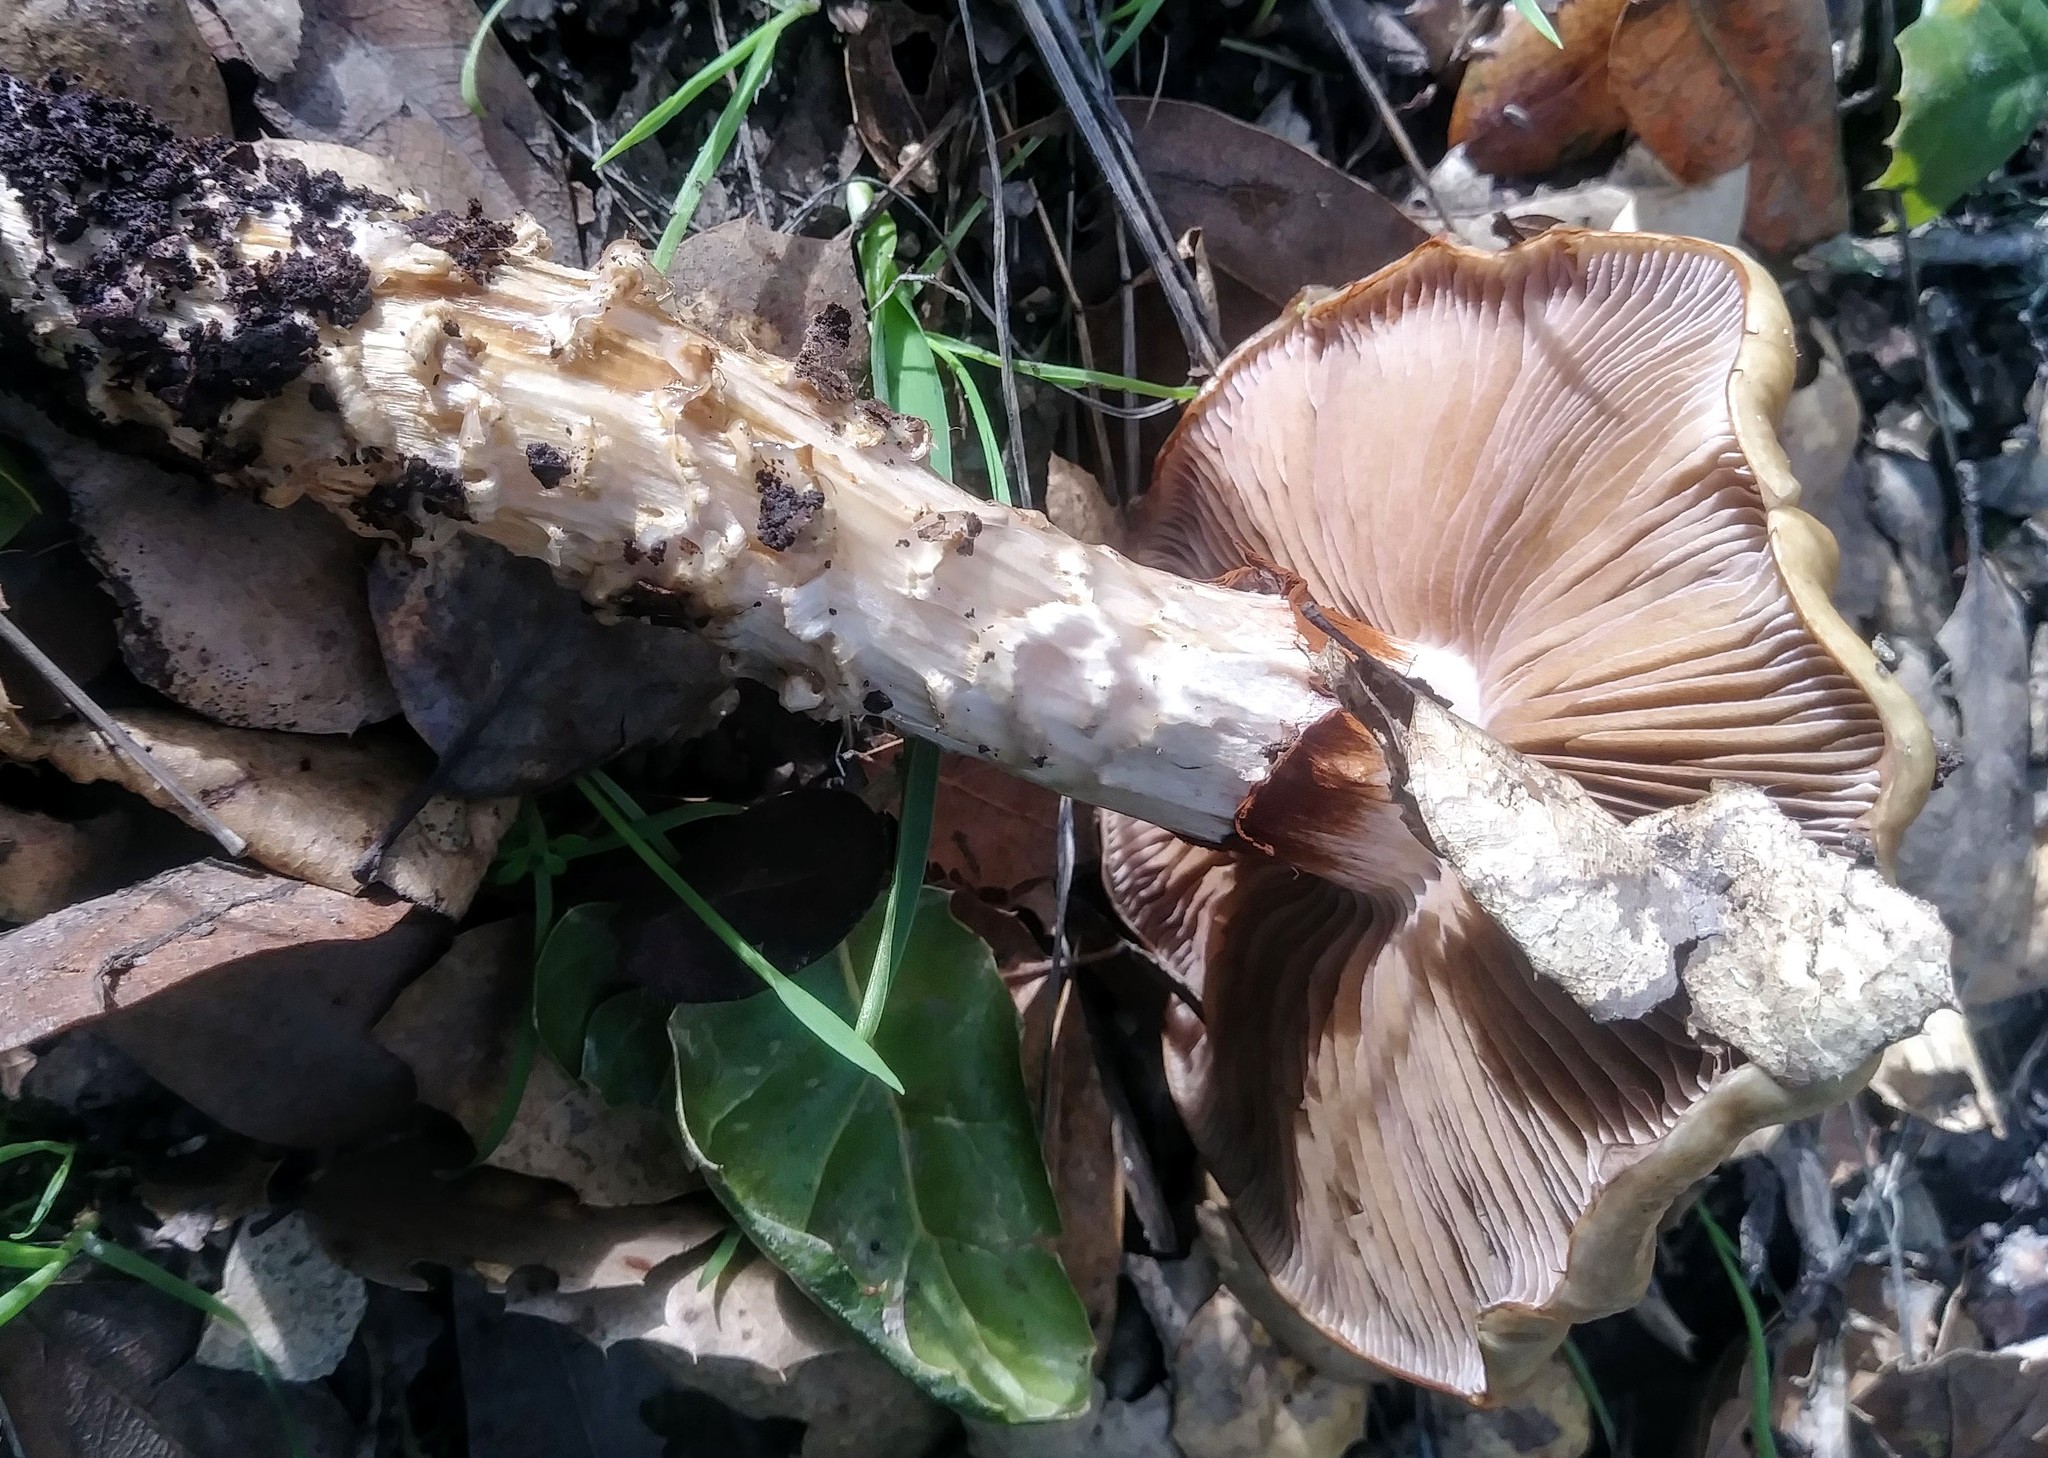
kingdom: Fungi
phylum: Basidiomycota
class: Agaricomycetes
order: Agaricales
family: Cortinariaceae
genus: Cortinarius
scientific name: Cortinarius glutinosoarmillatus
